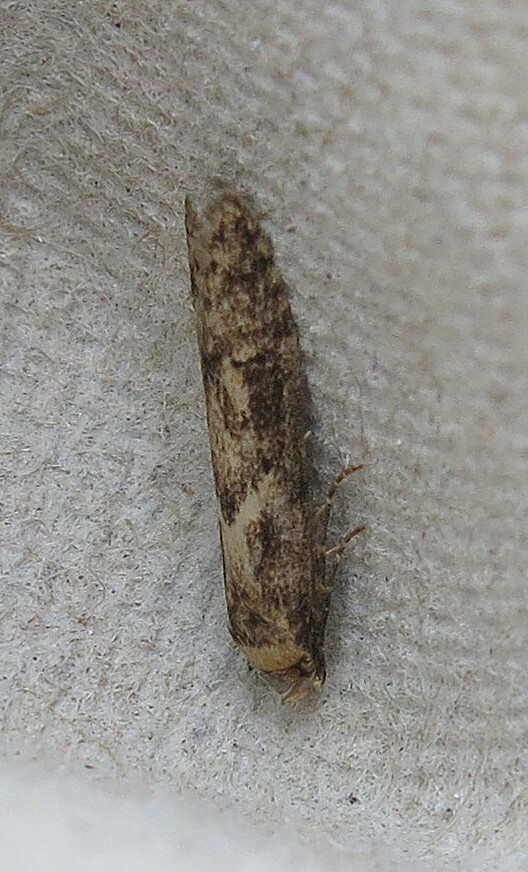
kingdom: Animalia
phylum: Arthropoda
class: Insecta
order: Lepidoptera
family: Blastobasidae
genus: Blastobasis
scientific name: Blastobasis adustella
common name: Dingy dowd
